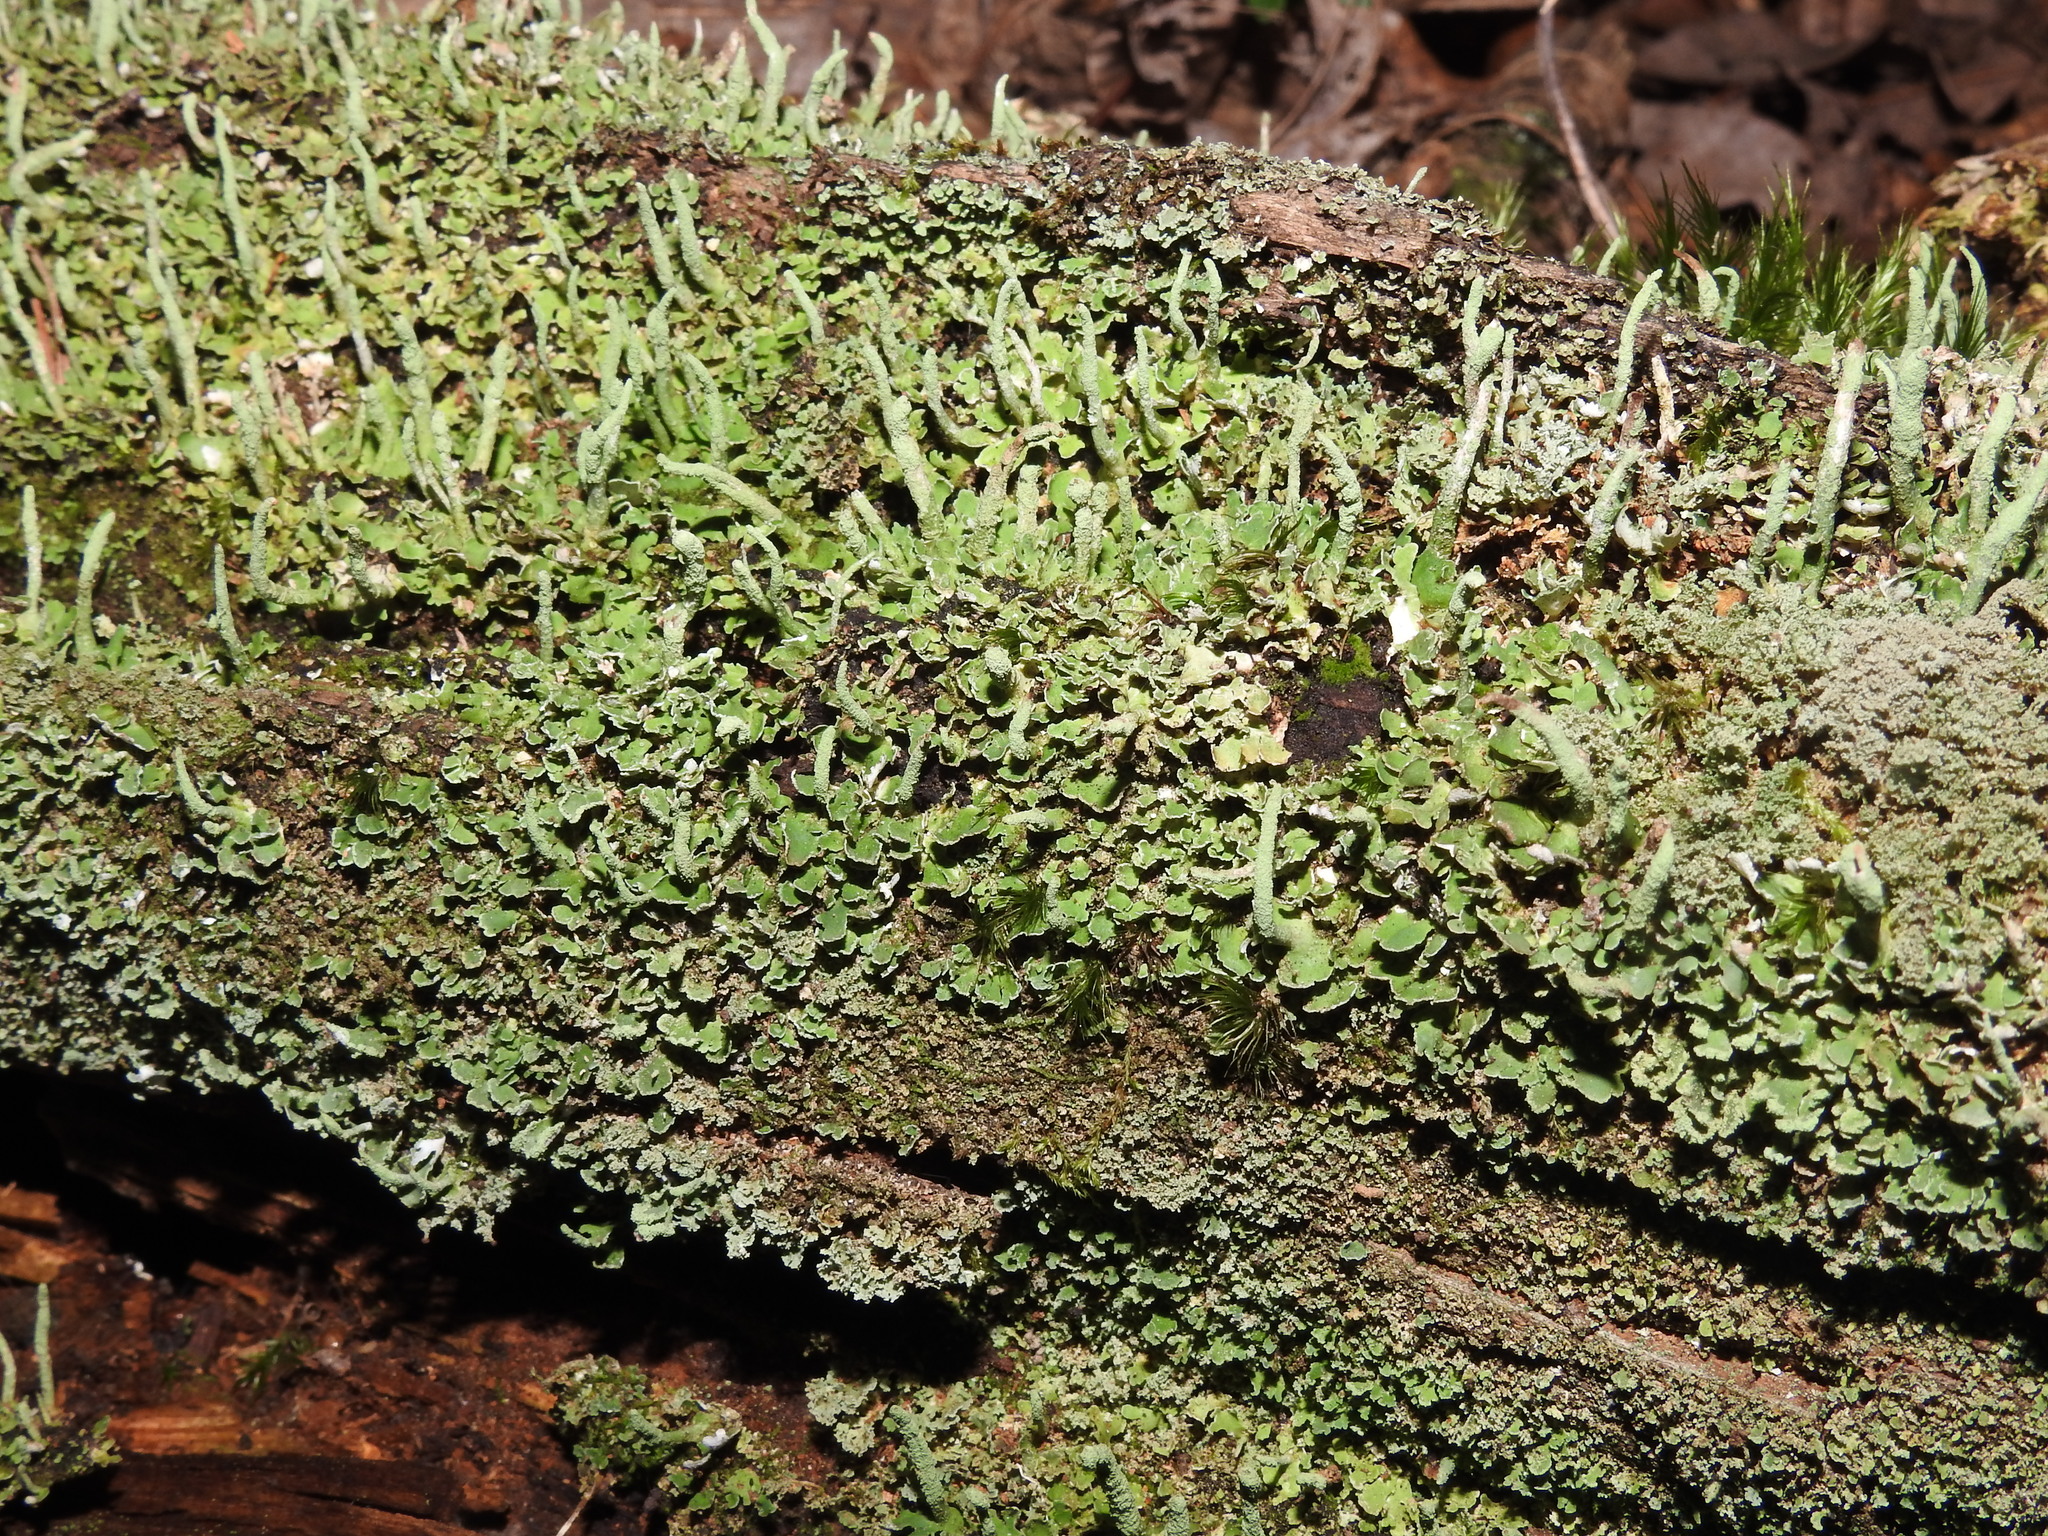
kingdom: Fungi
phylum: Ascomycota
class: Lecanoromycetes
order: Lecanorales
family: Cladoniaceae
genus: Cladonia
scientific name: Cladonia coniocraea
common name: Common powderhorn
